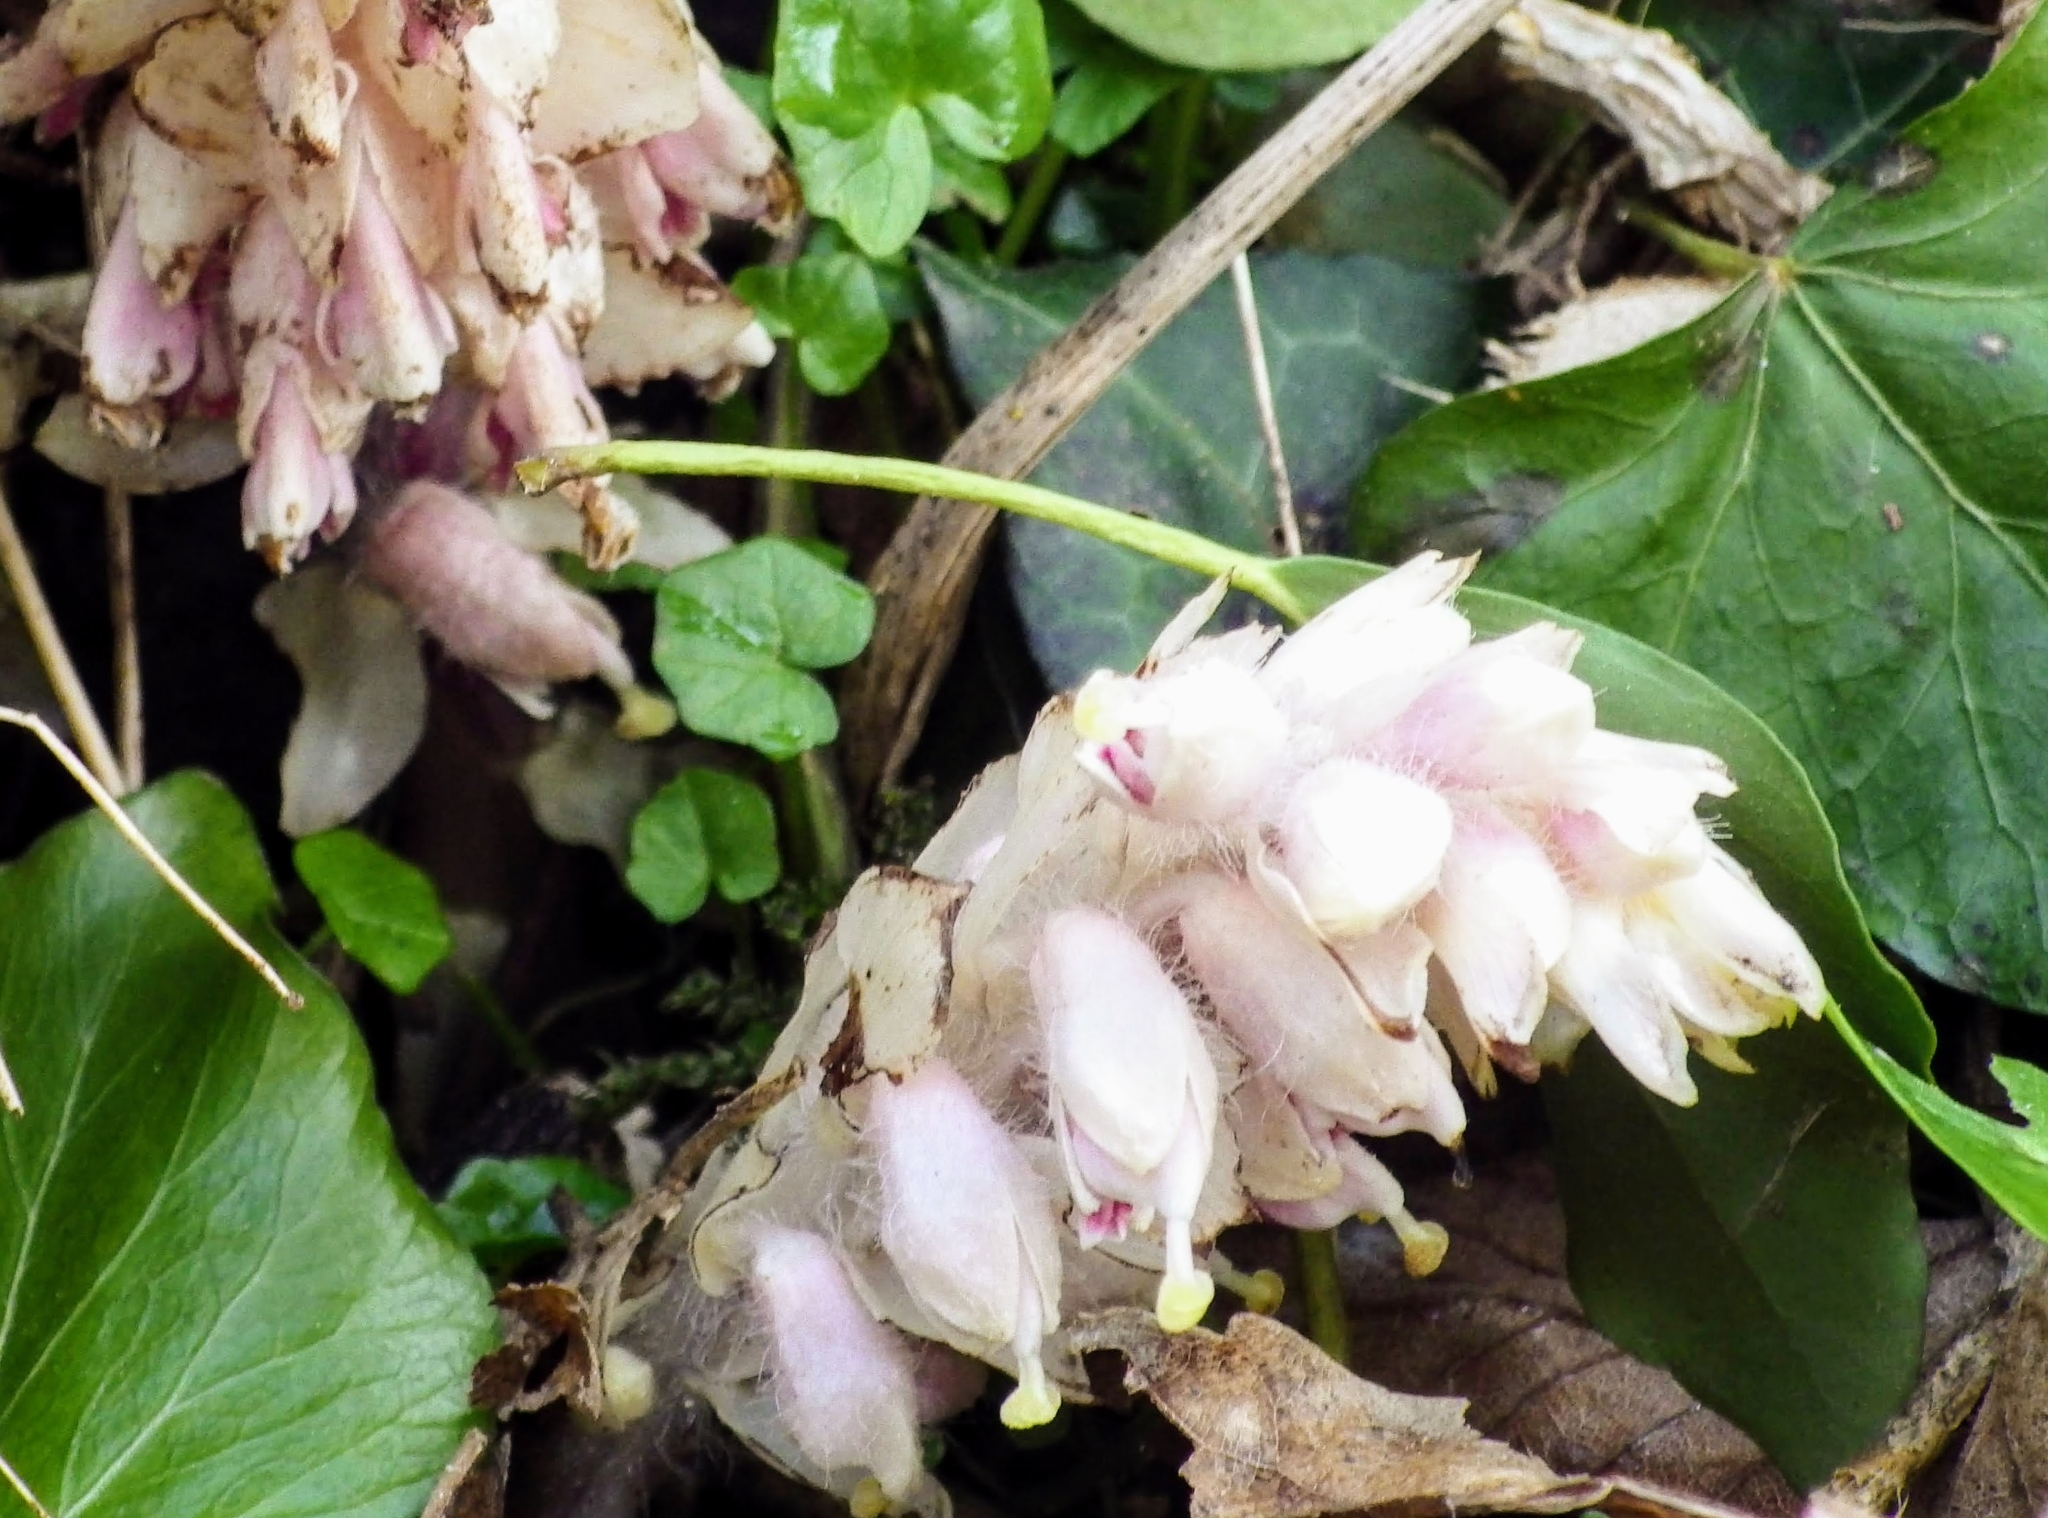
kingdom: Plantae
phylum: Tracheophyta
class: Magnoliopsida
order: Lamiales
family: Orobanchaceae
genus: Lathraea
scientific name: Lathraea squamaria
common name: Toothwort
